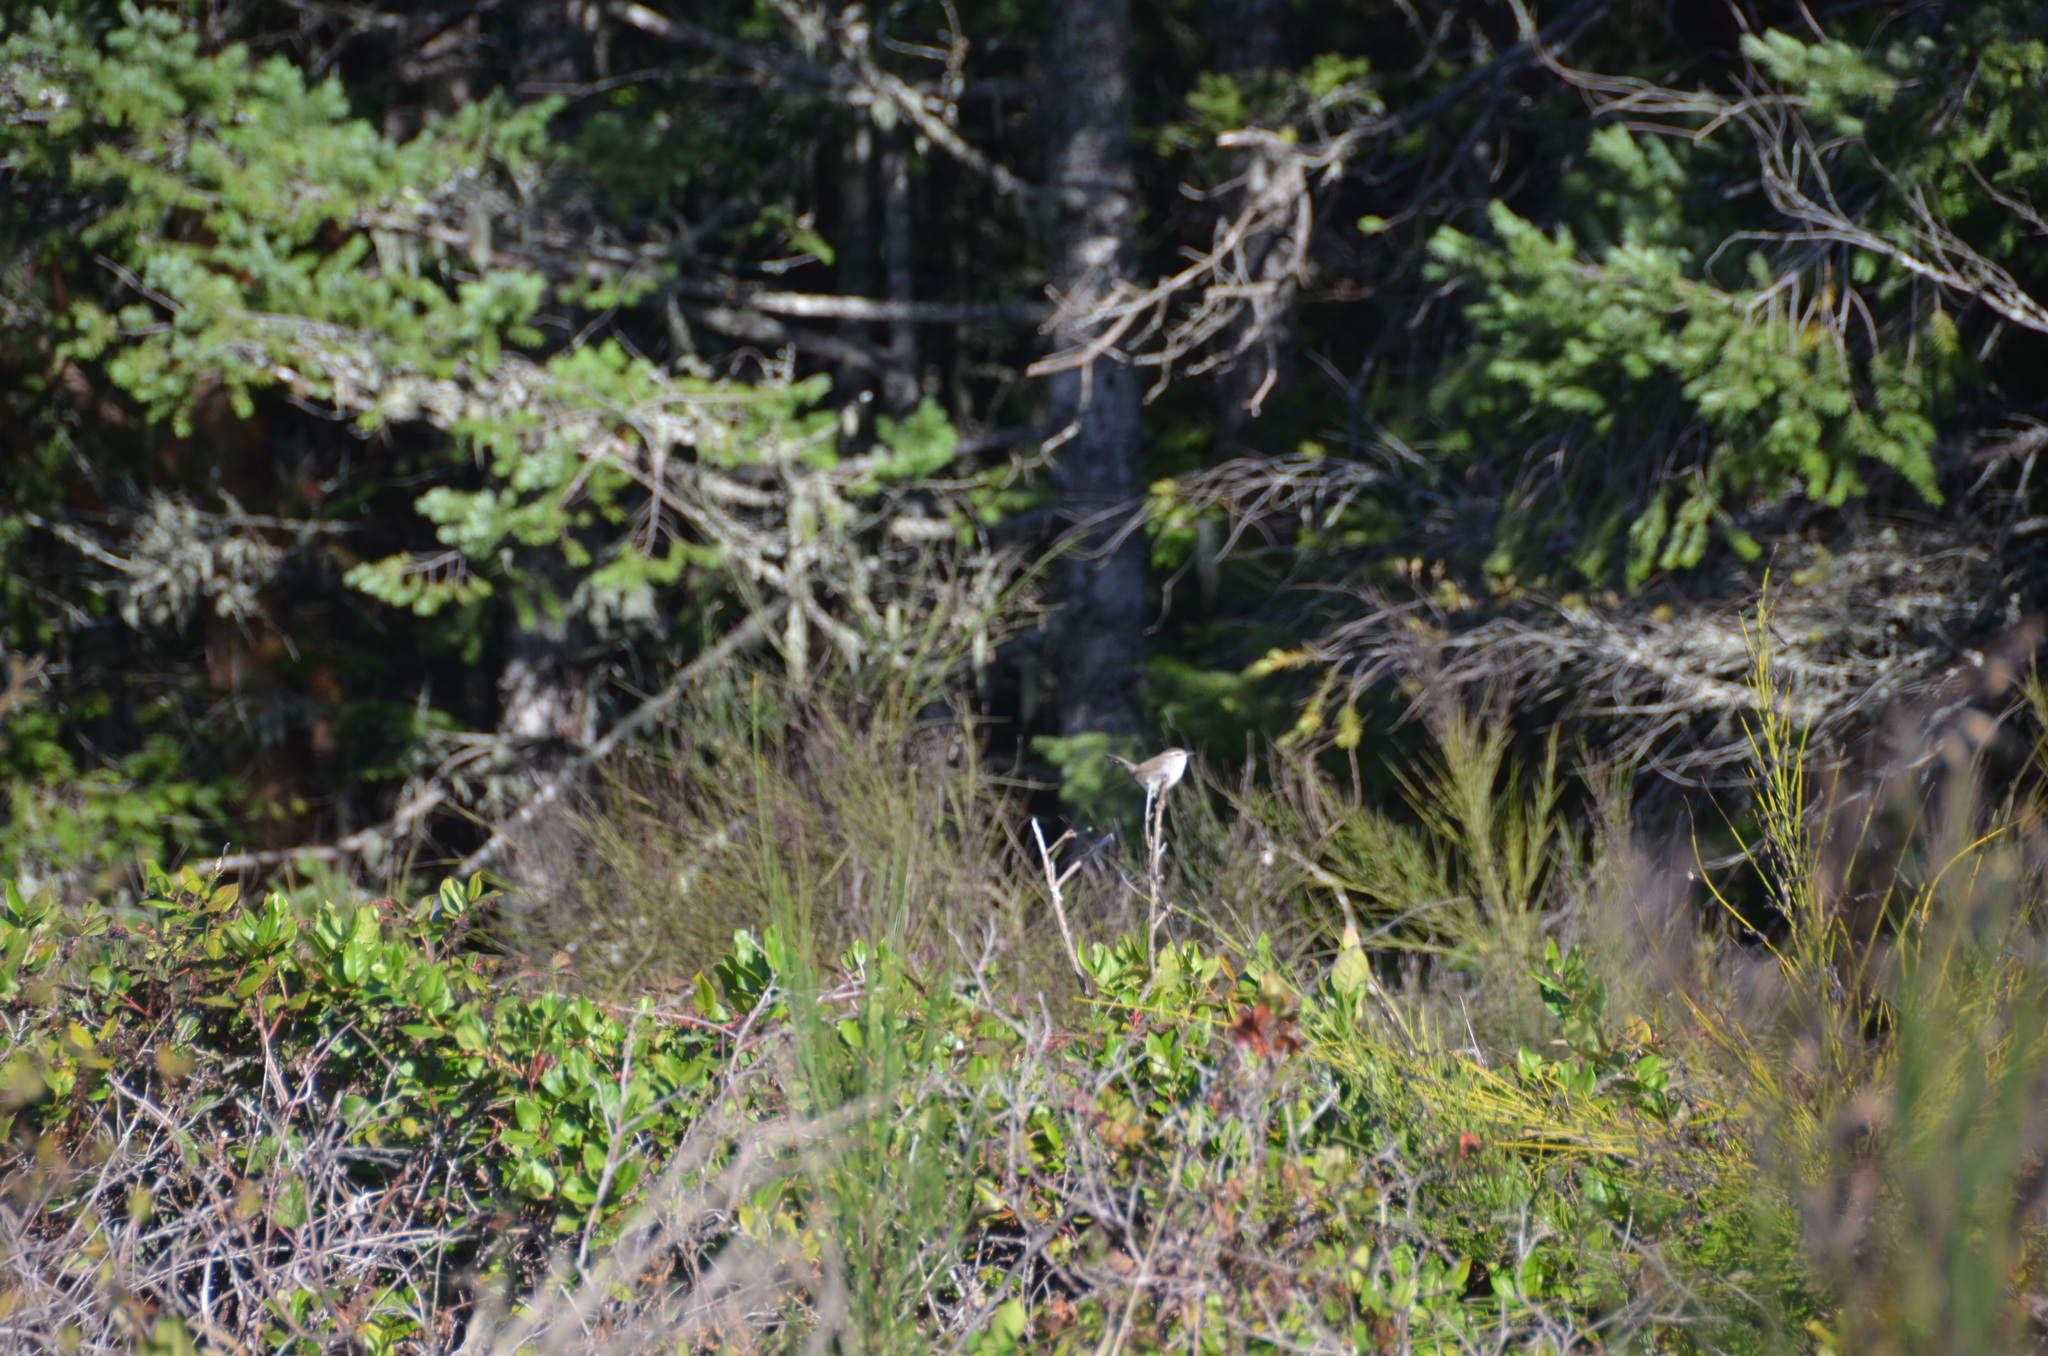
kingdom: Animalia
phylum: Chordata
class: Aves
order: Passeriformes
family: Troglodytidae
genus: Thryomanes
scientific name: Thryomanes bewickii
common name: Bewick's wren
